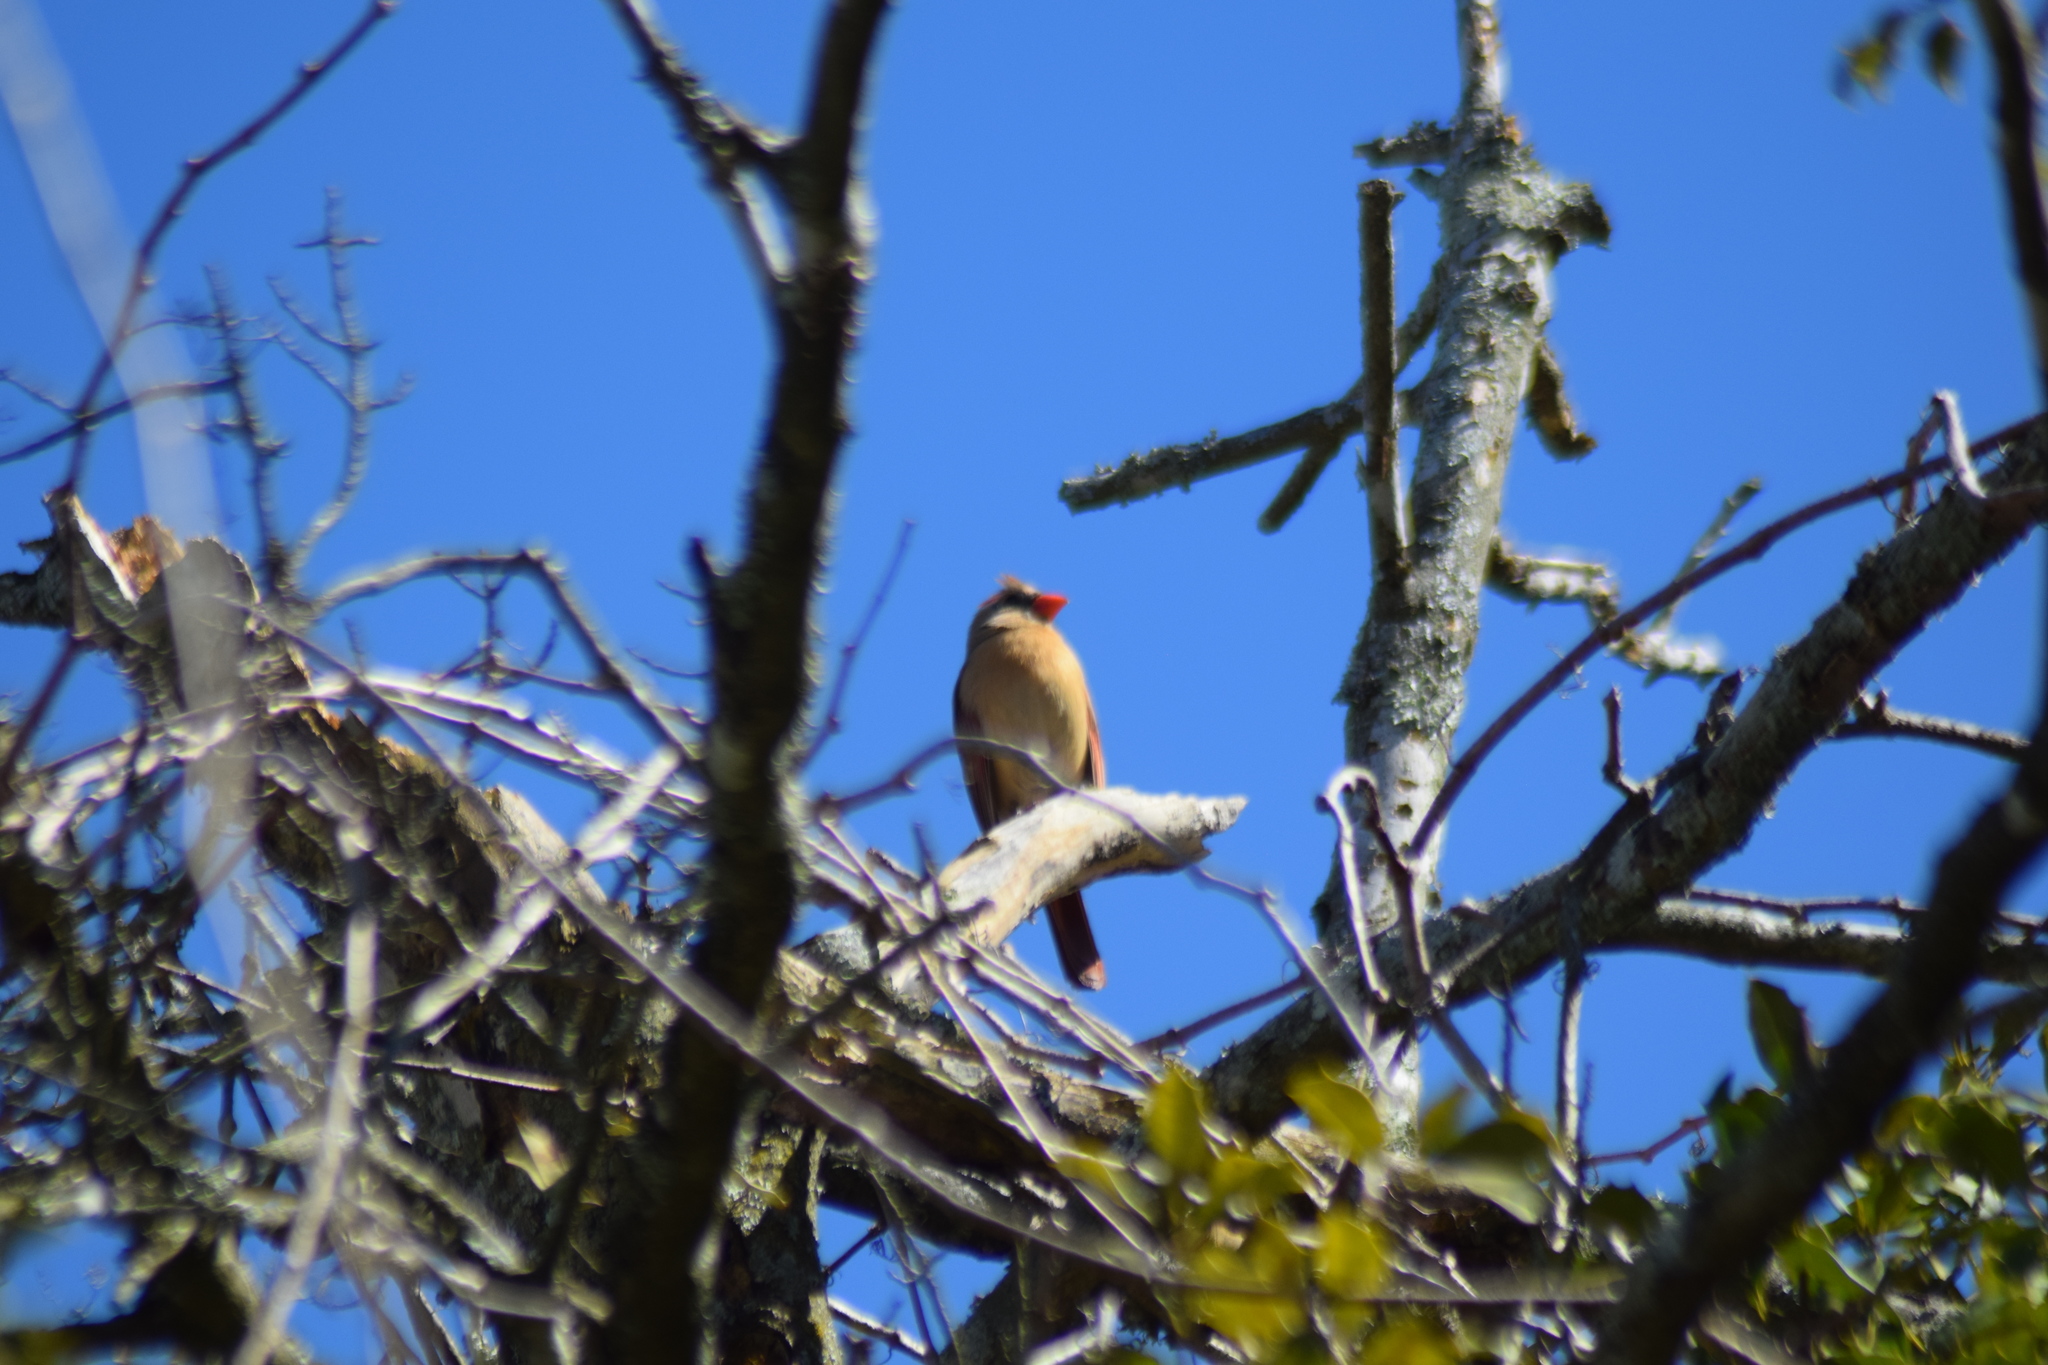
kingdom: Animalia
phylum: Chordata
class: Aves
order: Passeriformes
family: Cardinalidae
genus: Cardinalis
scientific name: Cardinalis cardinalis
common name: Northern cardinal
